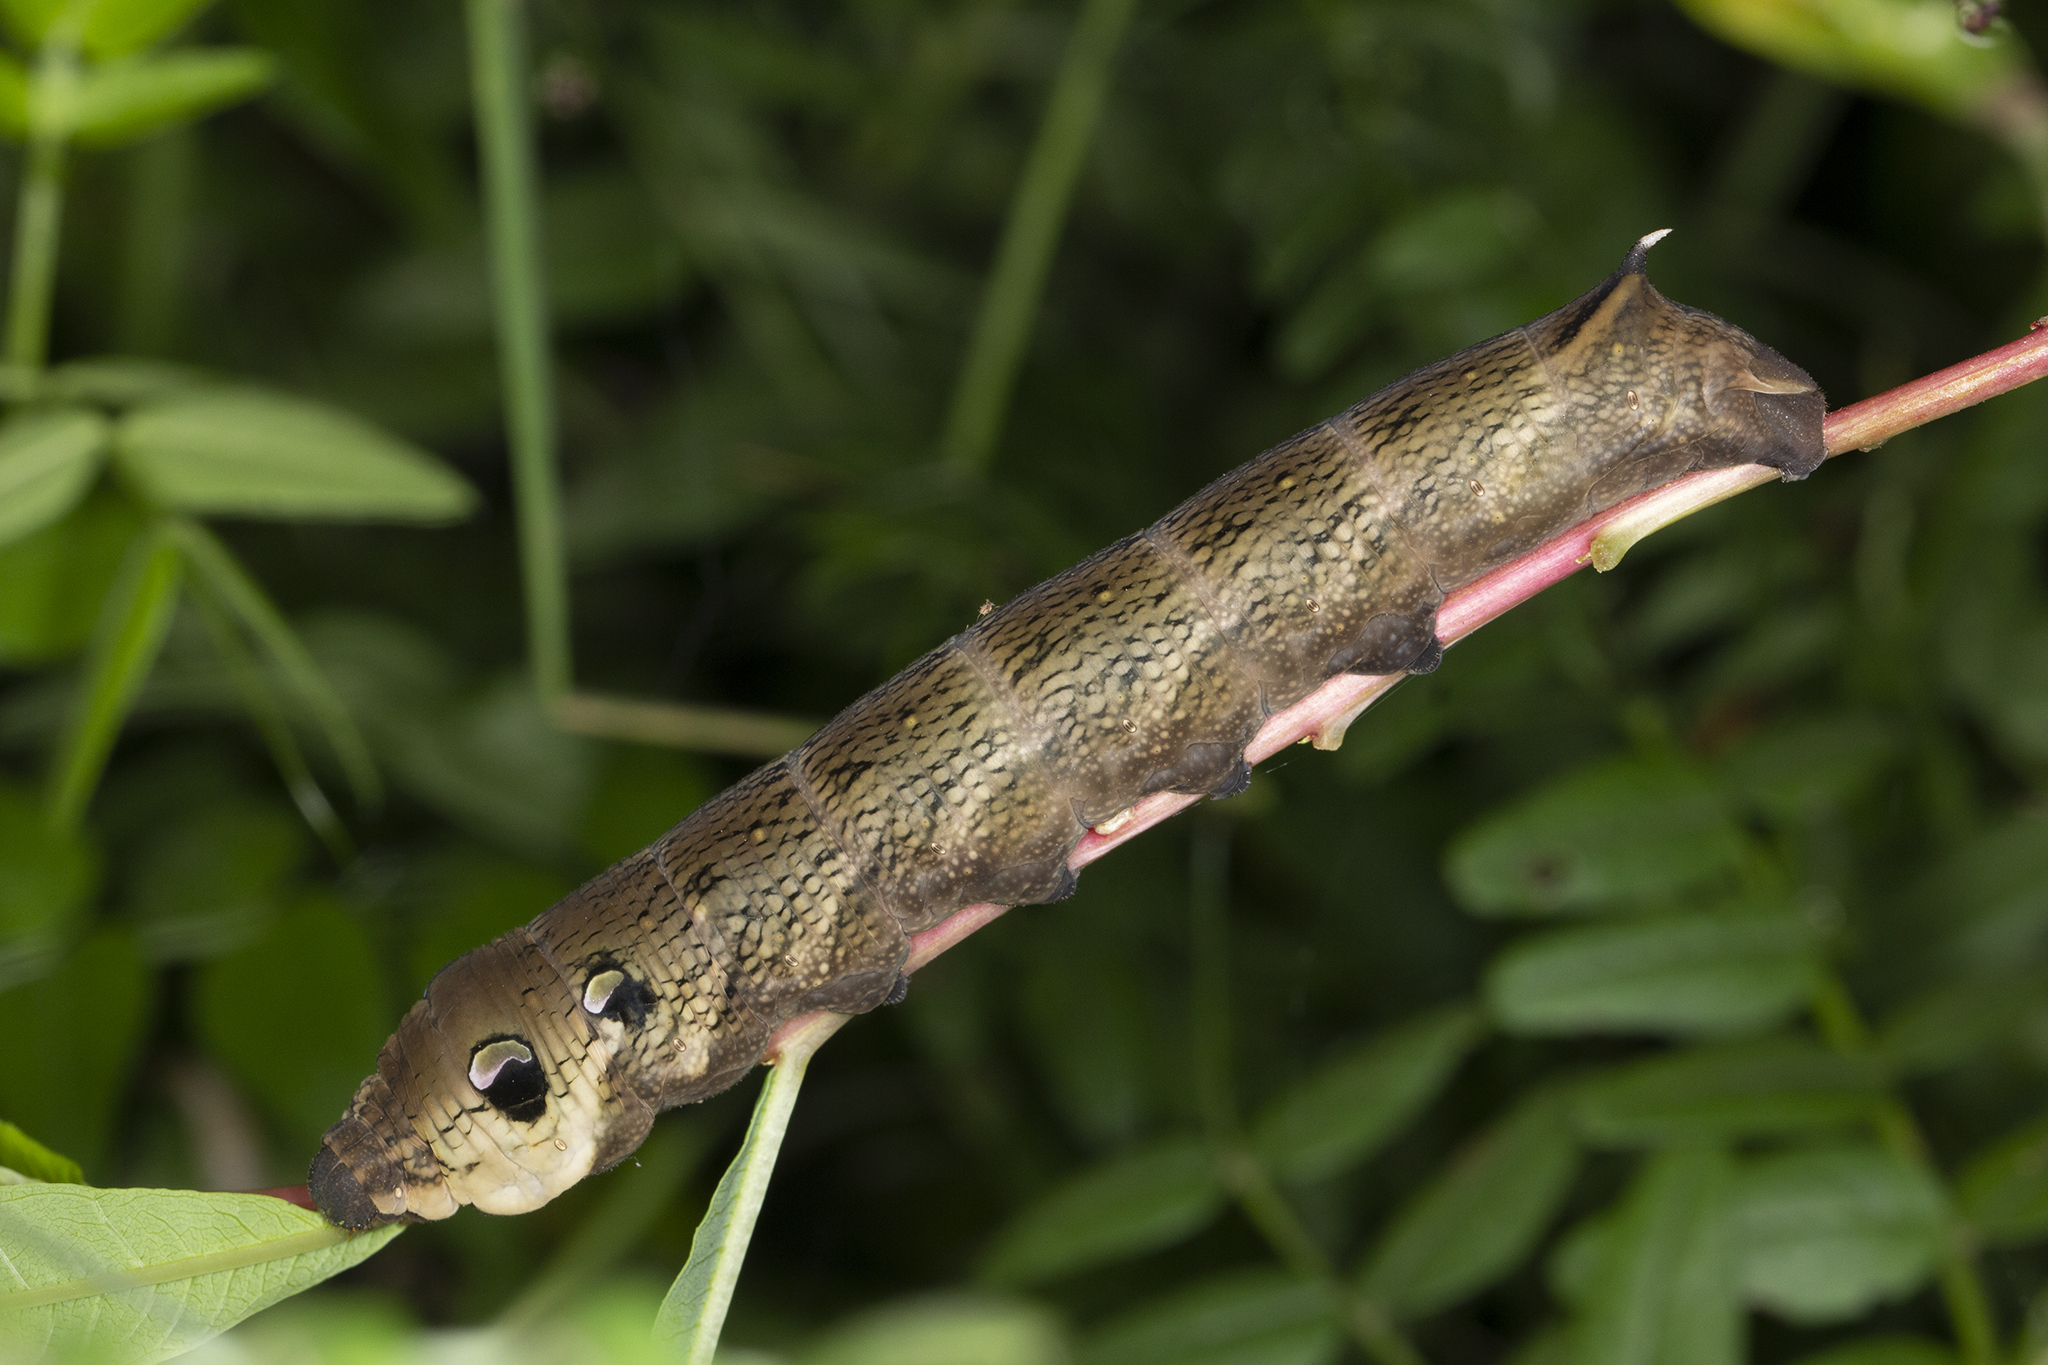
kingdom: Animalia
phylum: Arthropoda
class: Insecta
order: Lepidoptera
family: Sphingidae
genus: Deilephila
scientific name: Deilephila elpenor
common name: Elephant hawk-moth
